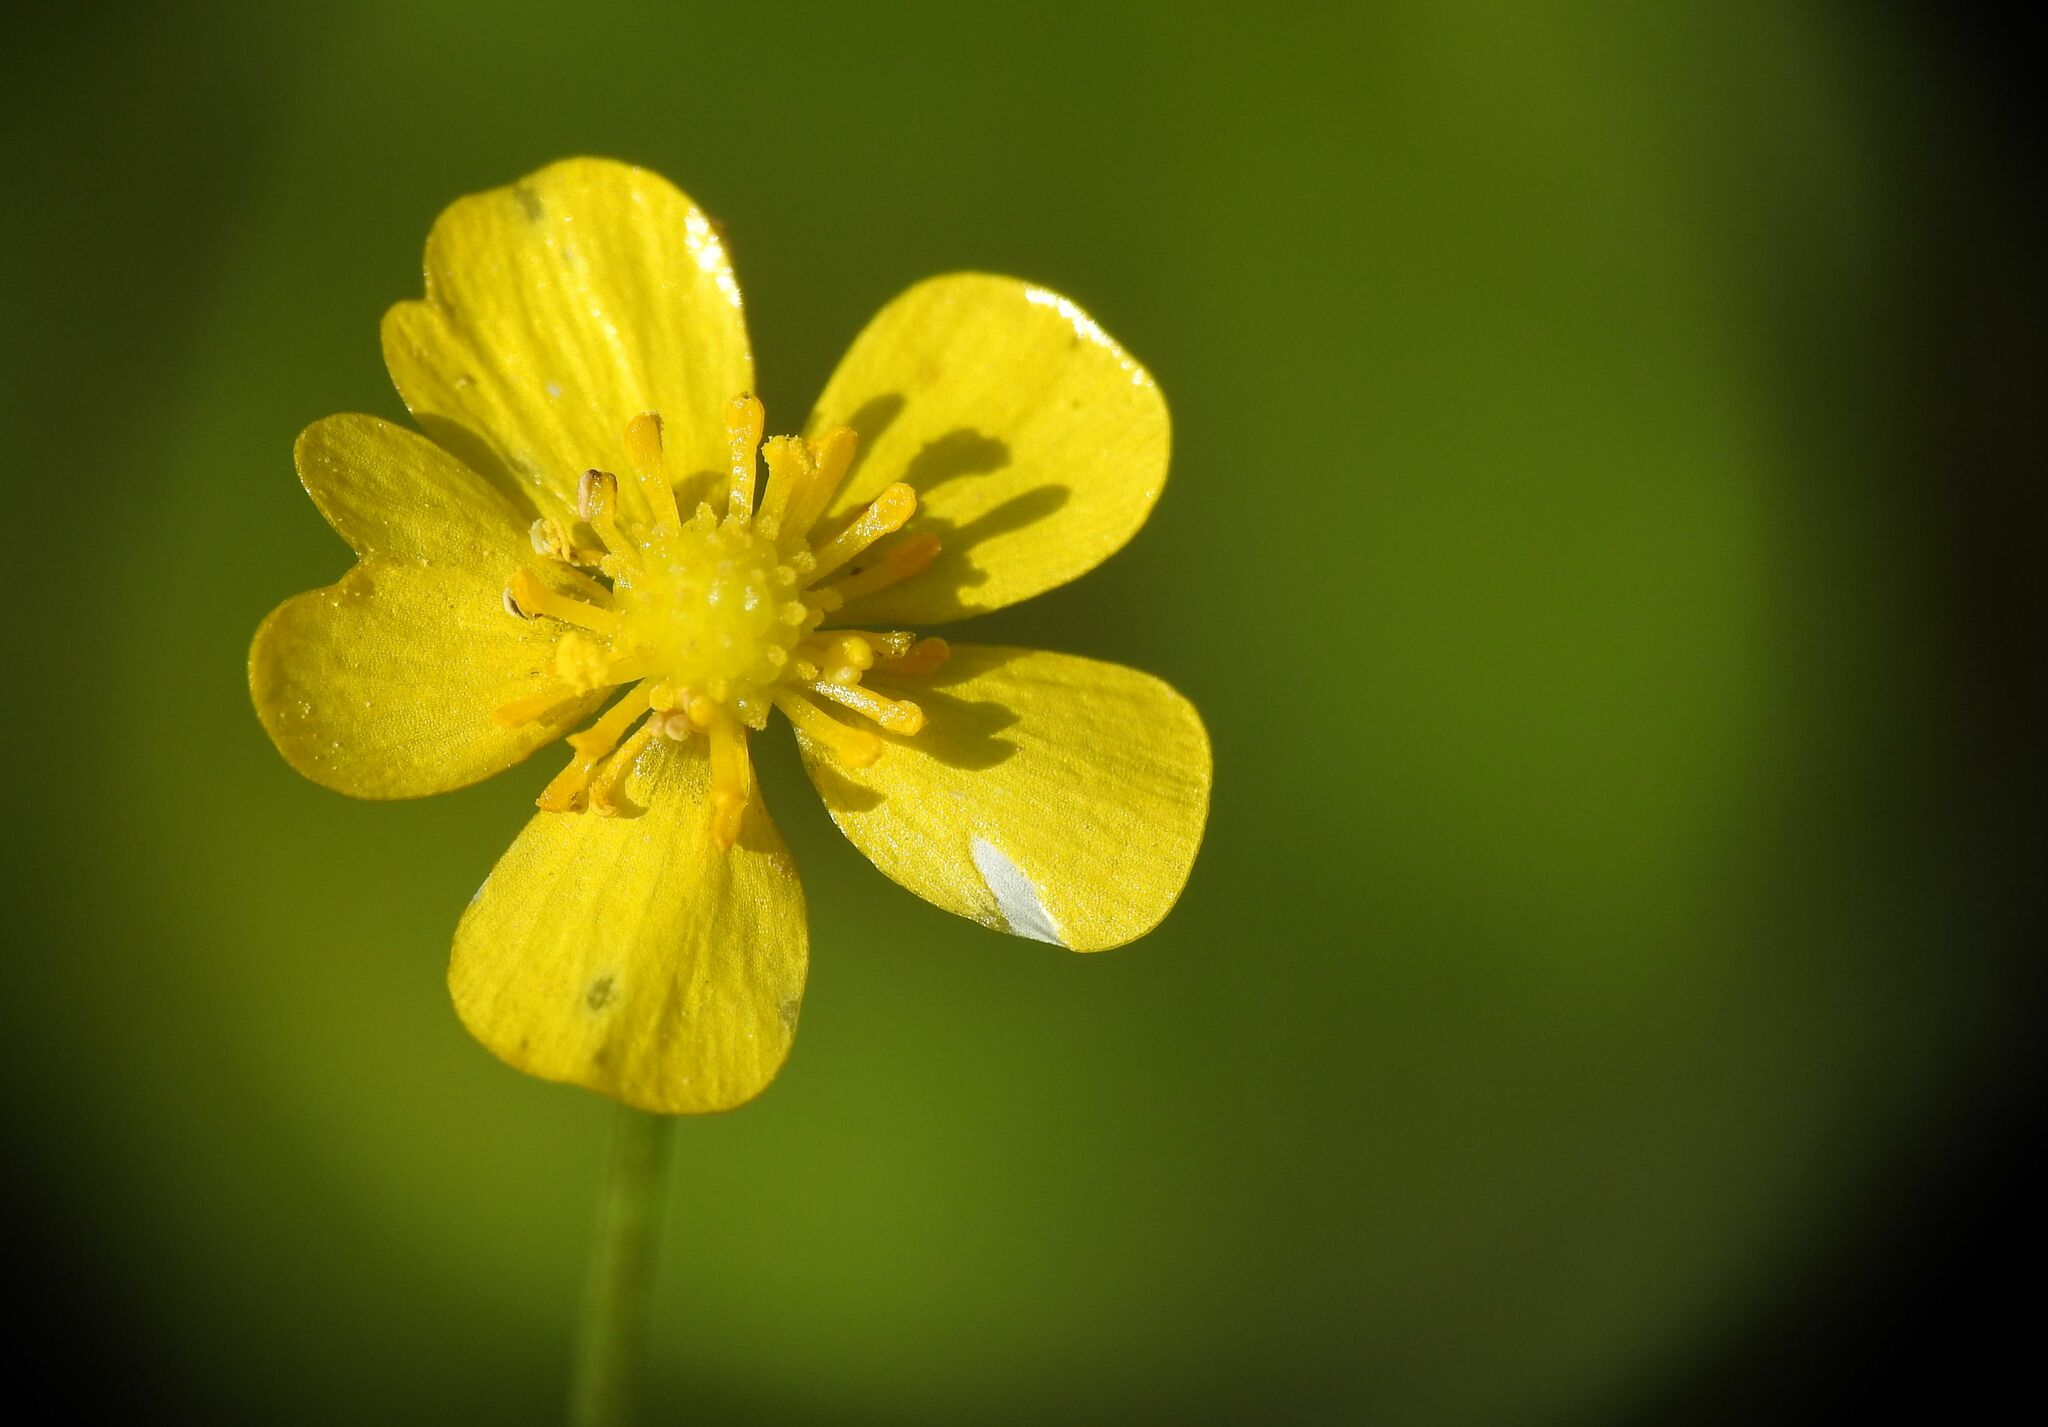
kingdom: Plantae
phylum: Tracheophyta
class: Magnoliopsida
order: Ranunculales
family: Ranunculaceae
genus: Ranunculus
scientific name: Ranunculus flammula
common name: Lesser spearwort
